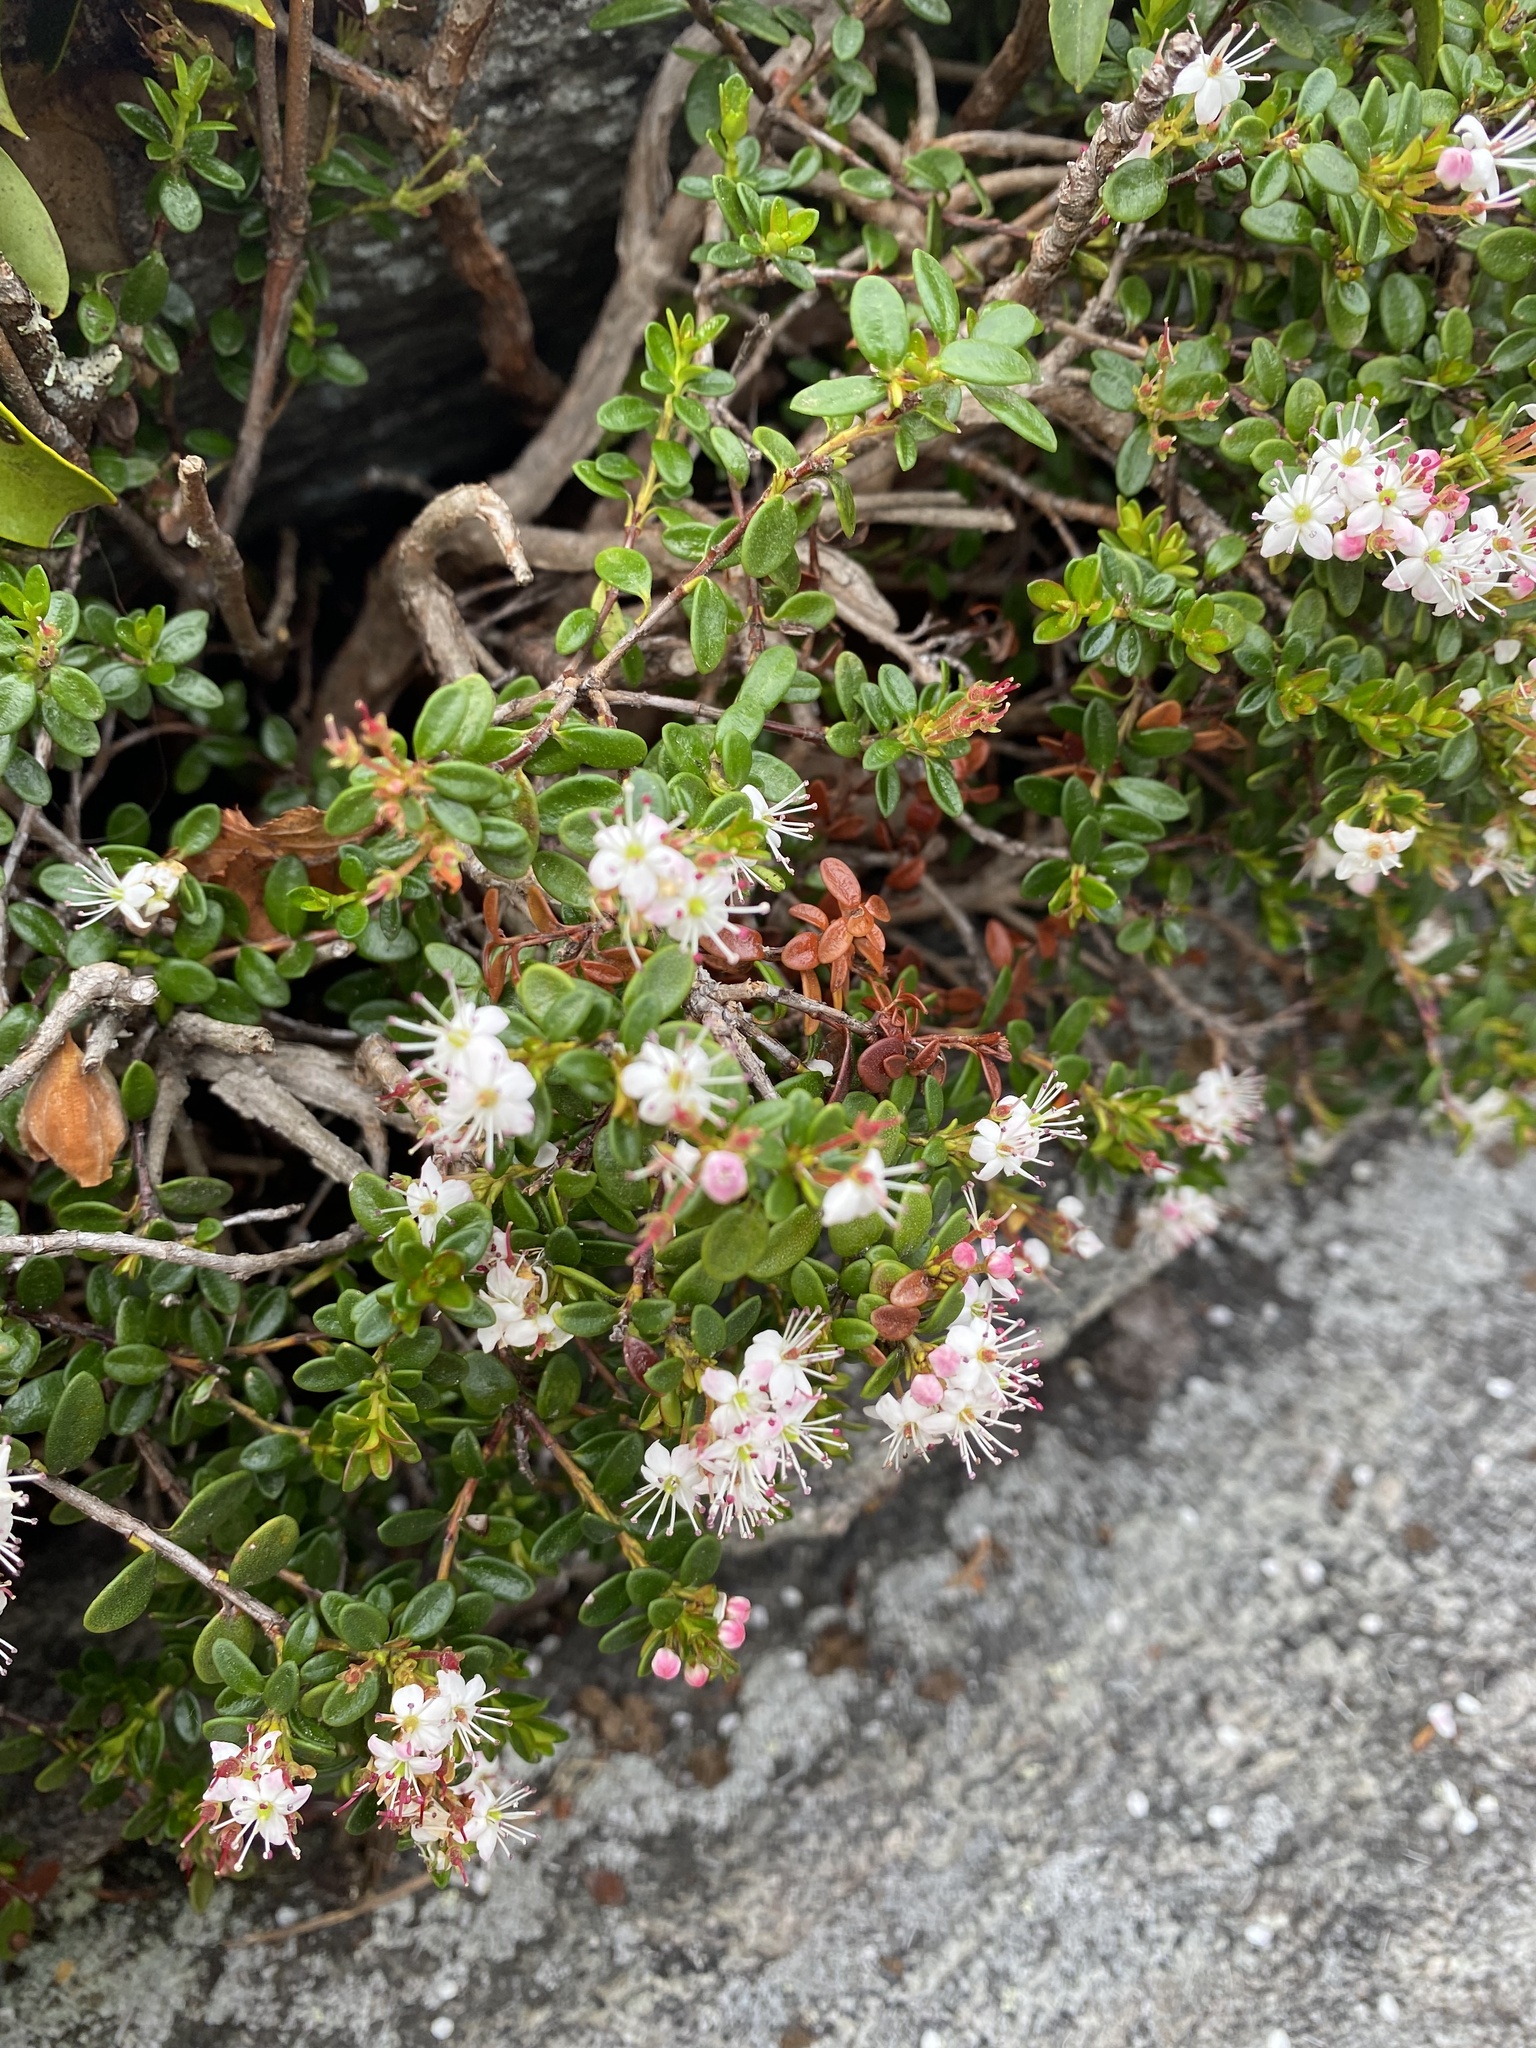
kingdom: Plantae
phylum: Tracheophyta
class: Magnoliopsida
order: Ericales
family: Ericaceae
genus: Kalmia
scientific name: Kalmia buxifolia
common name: Sandmyrtle
